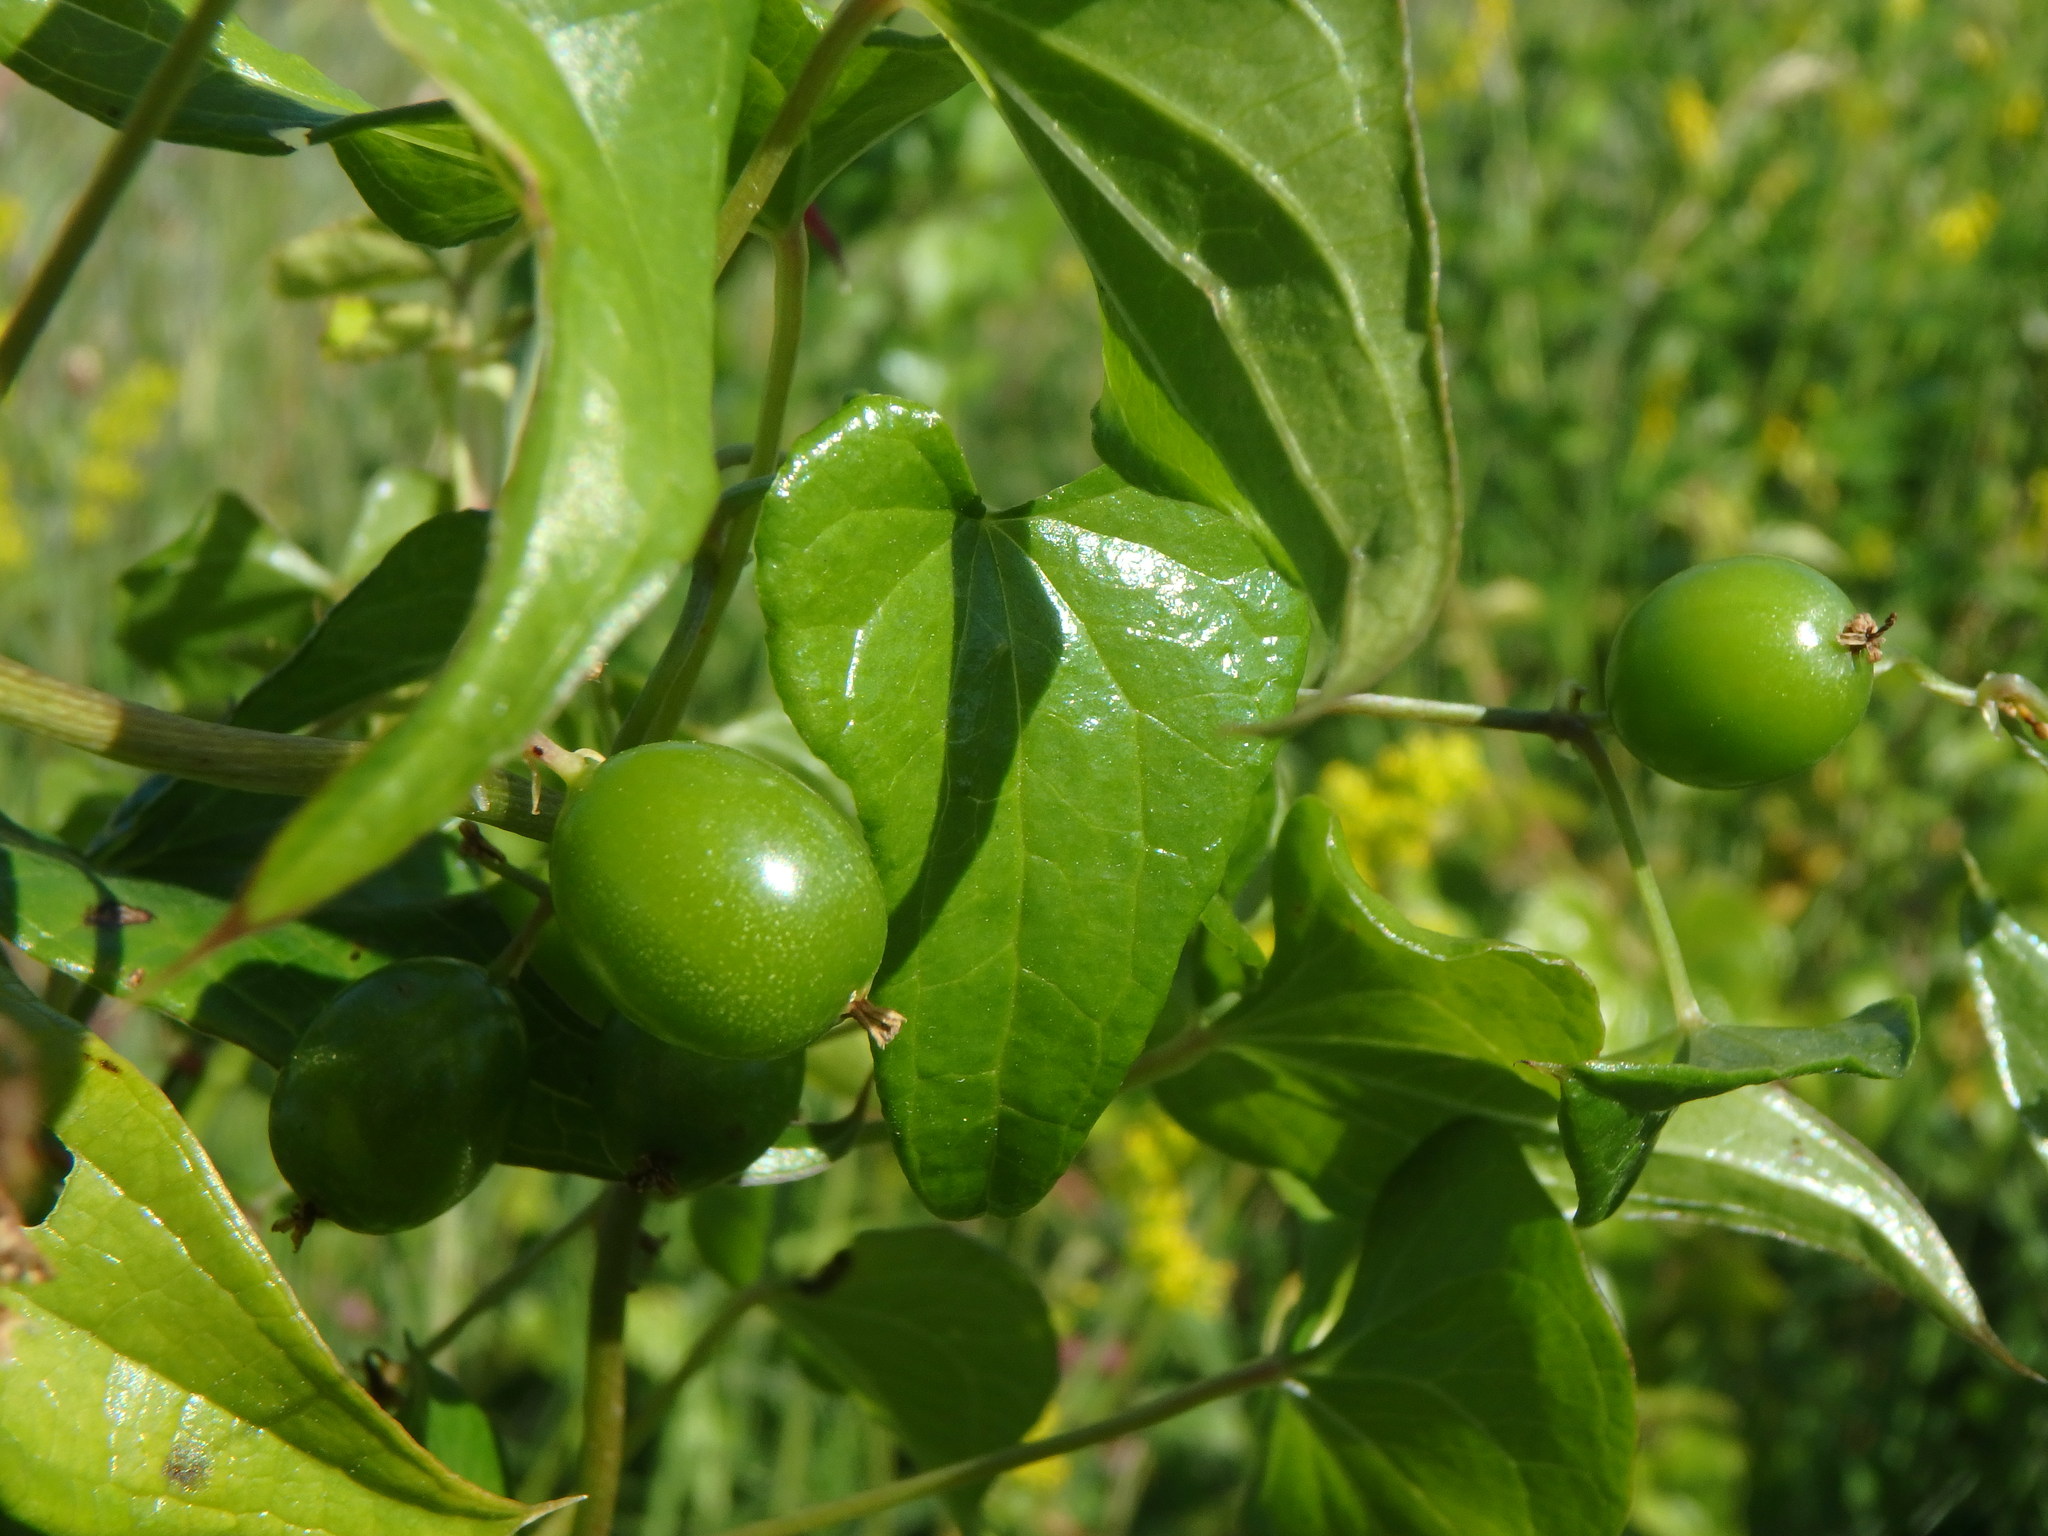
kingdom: Plantae
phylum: Tracheophyta
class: Liliopsida
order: Dioscoreales
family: Dioscoreaceae
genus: Dioscorea
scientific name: Dioscorea communis
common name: Black-bindweed
